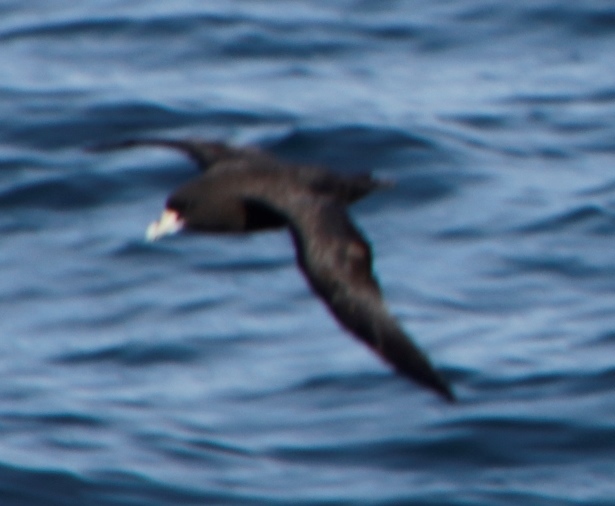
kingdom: Animalia
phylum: Chordata
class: Aves
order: Procellariiformes
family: Procellariidae
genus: Procellaria
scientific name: Procellaria aequinoctialis
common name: White-chinned petrel
